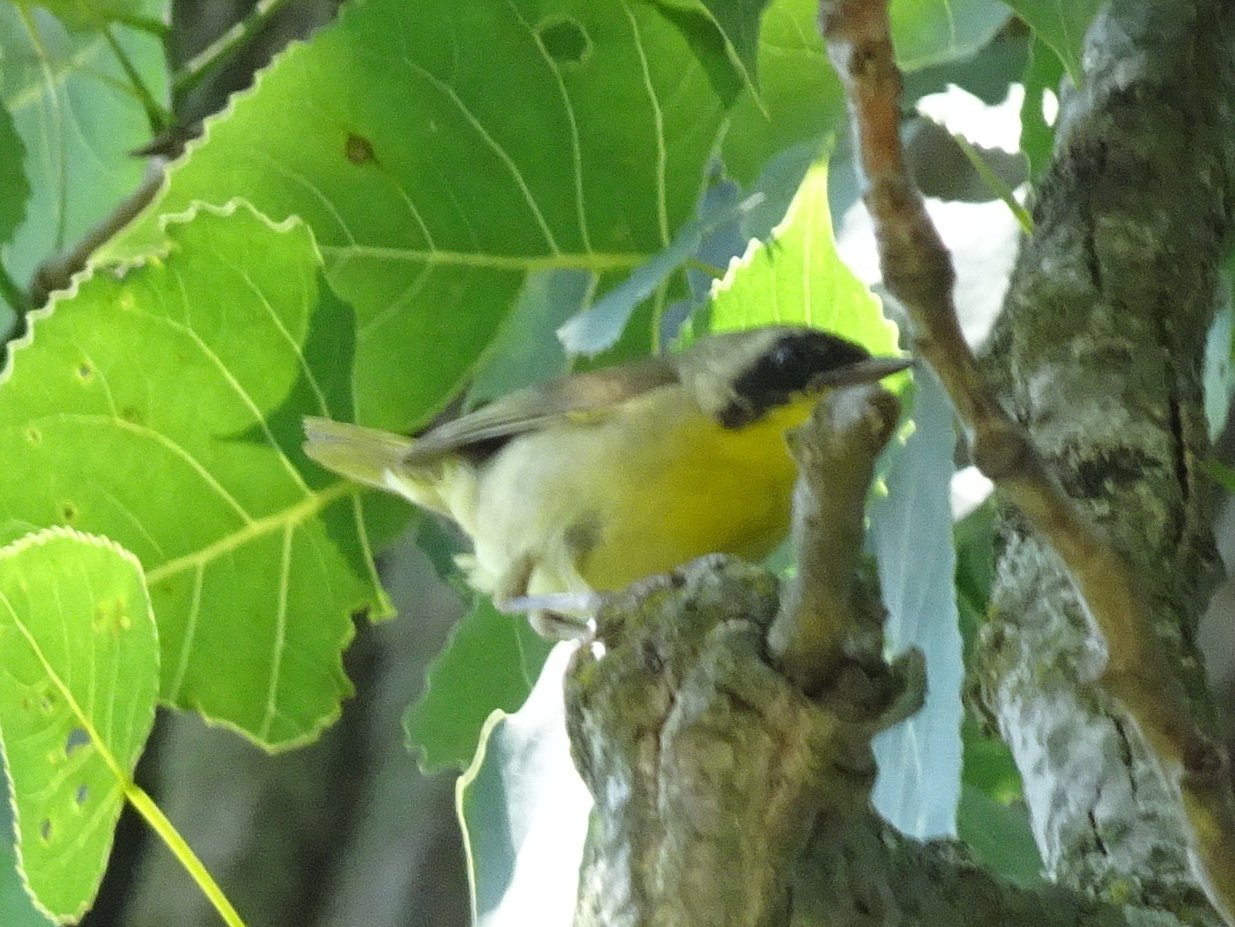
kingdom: Animalia
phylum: Chordata
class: Aves
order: Passeriformes
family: Parulidae
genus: Geothlypis
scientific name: Geothlypis trichas
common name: Common yellowthroat
